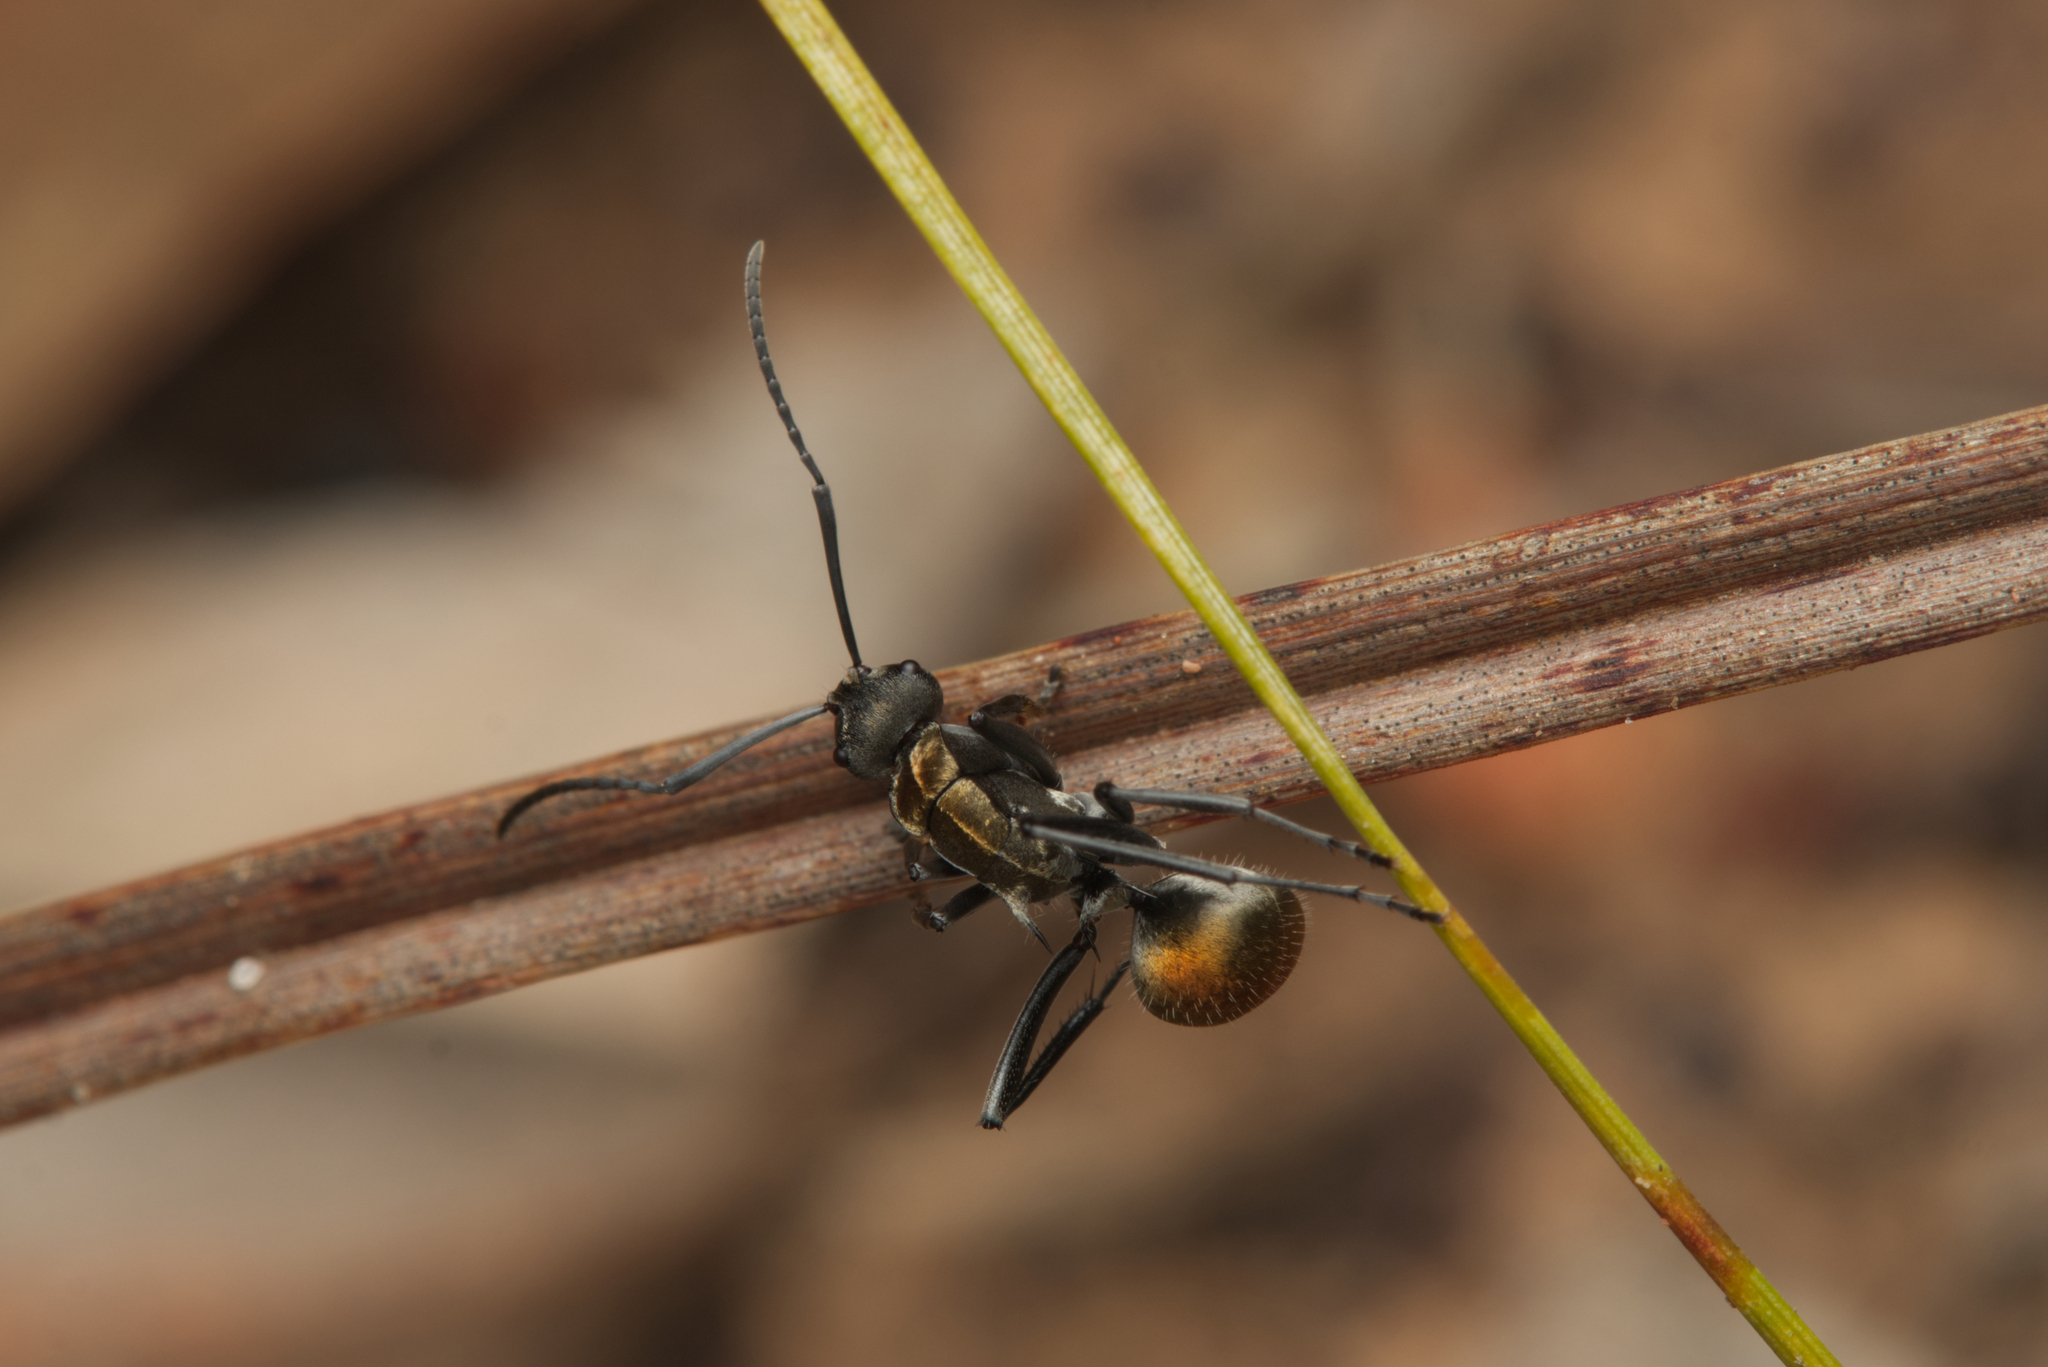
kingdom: Animalia
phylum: Arthropoda
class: Insecta
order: Hymenoptera
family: Formicidae
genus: Polyrhachis
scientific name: Polyrhachis ammon
